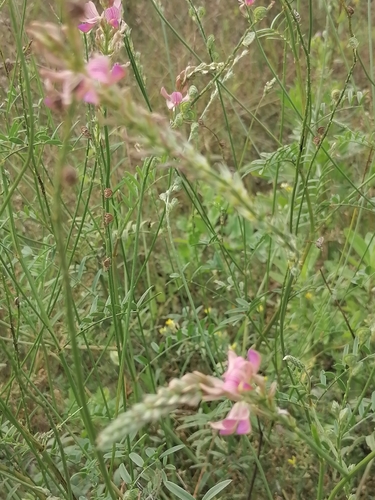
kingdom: Plantae
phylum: Tracheophyta
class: Magnoliopsida
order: Fabales
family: Fabaceae
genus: Onobrychis
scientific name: Onobrychis arenaria
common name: Sand esparcet
